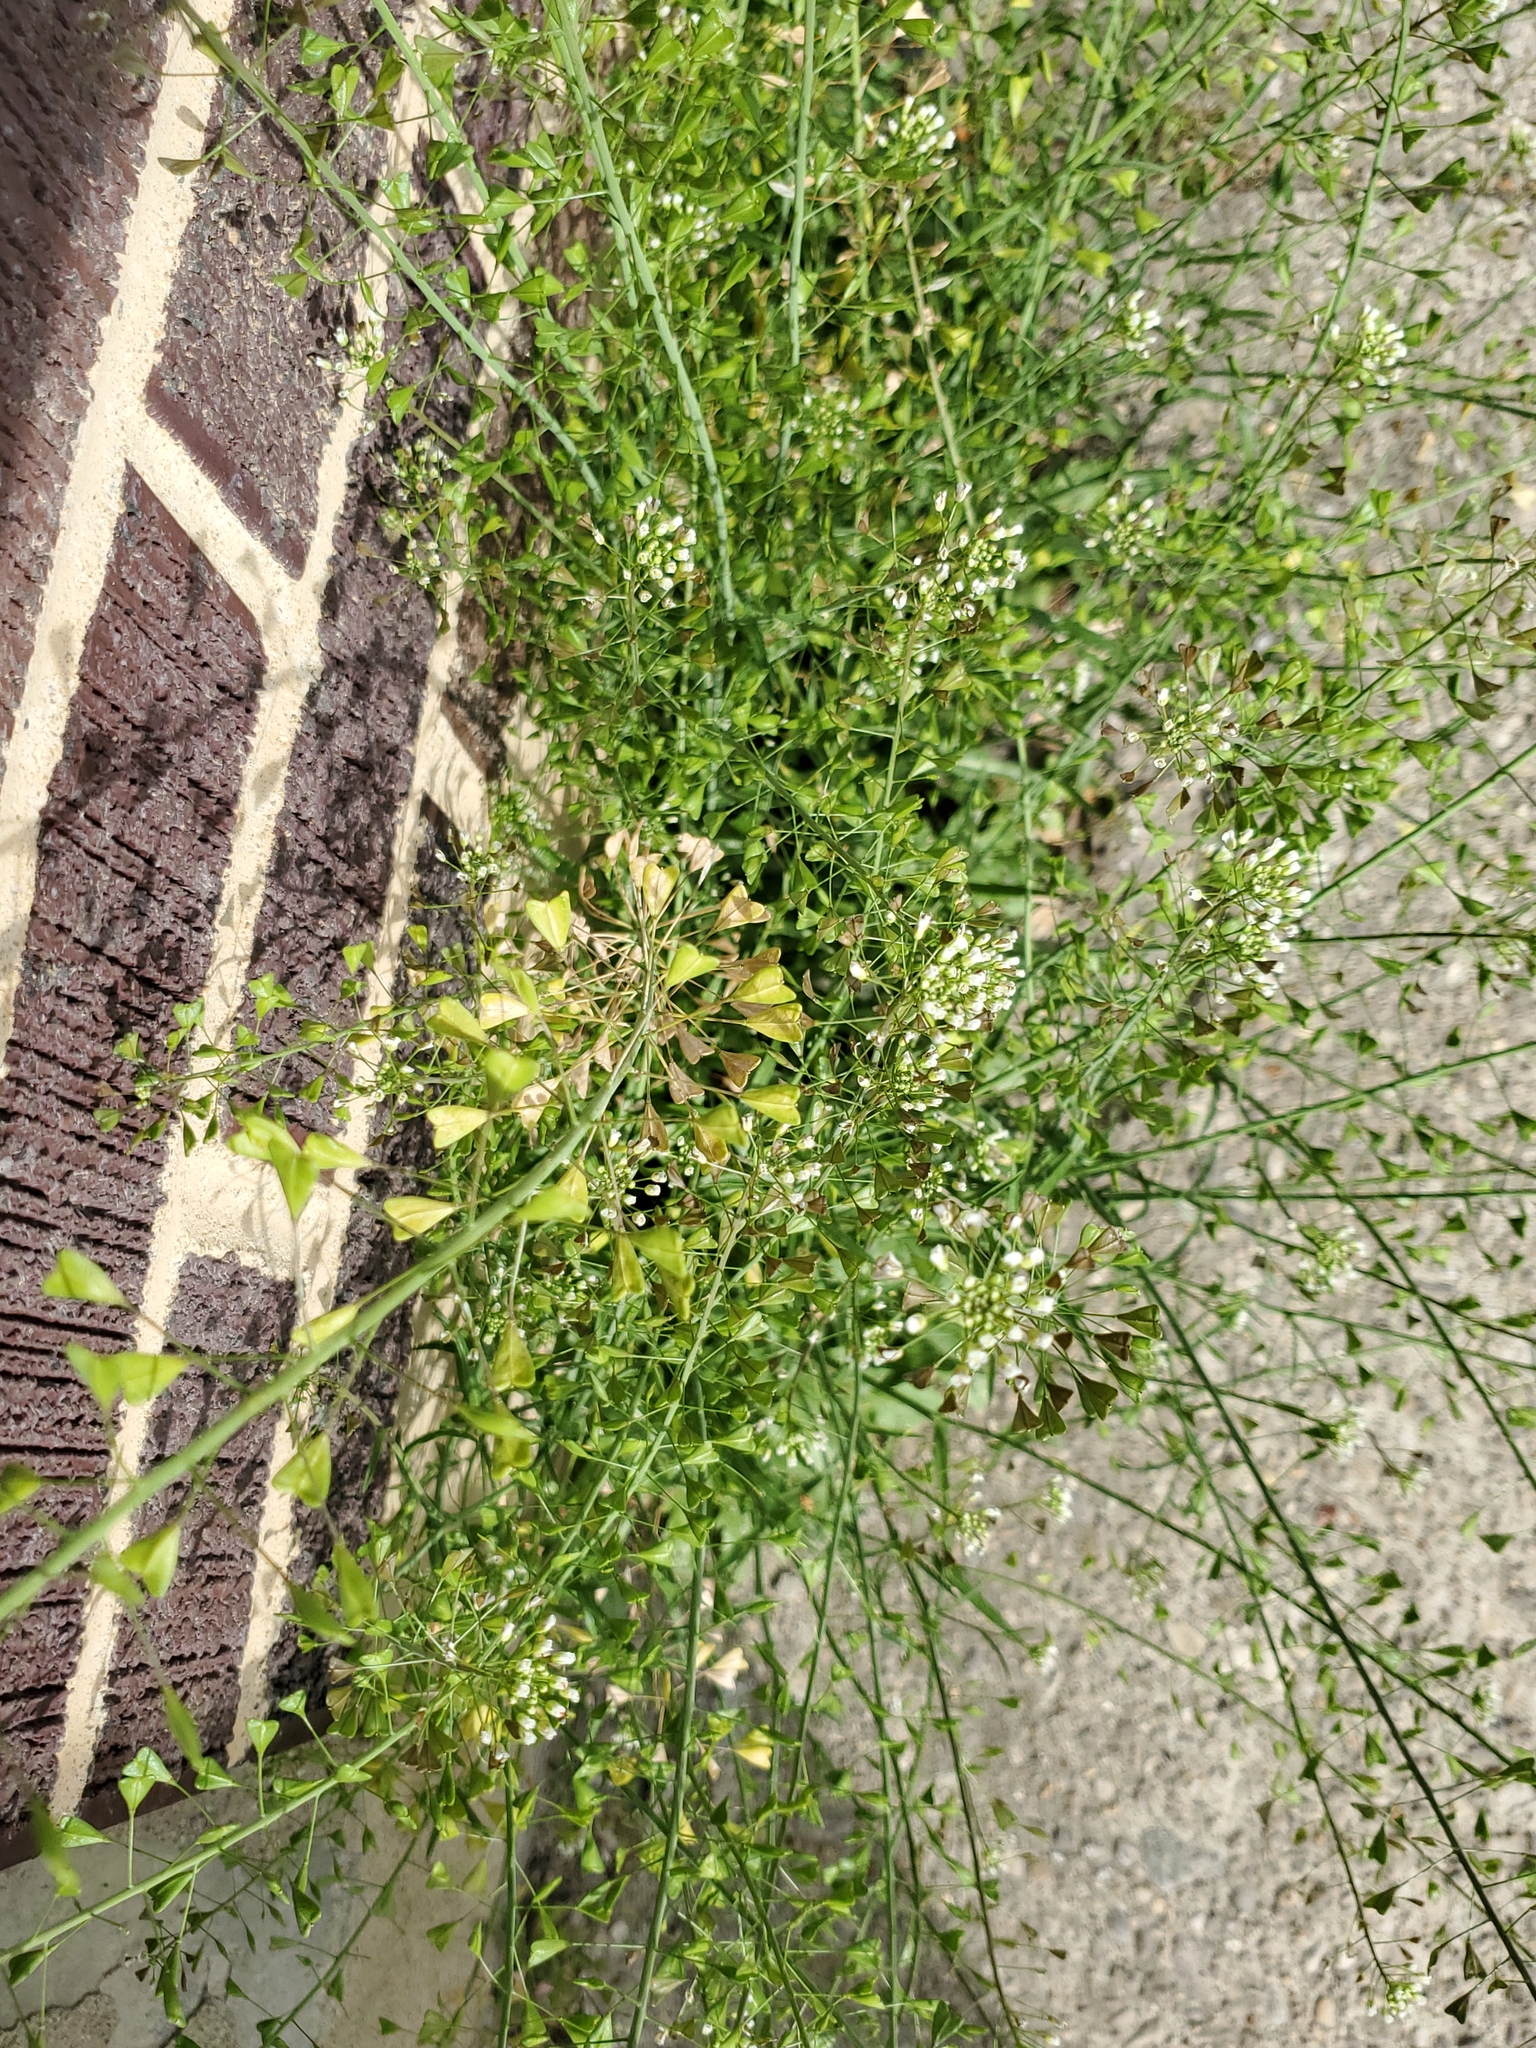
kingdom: Plantae
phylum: Tracheophyta
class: Magnoliopsida
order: Brassicales
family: Brassicaceae
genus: Capsella
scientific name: Capsella bursa-pastoris
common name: Shepherd's purse
